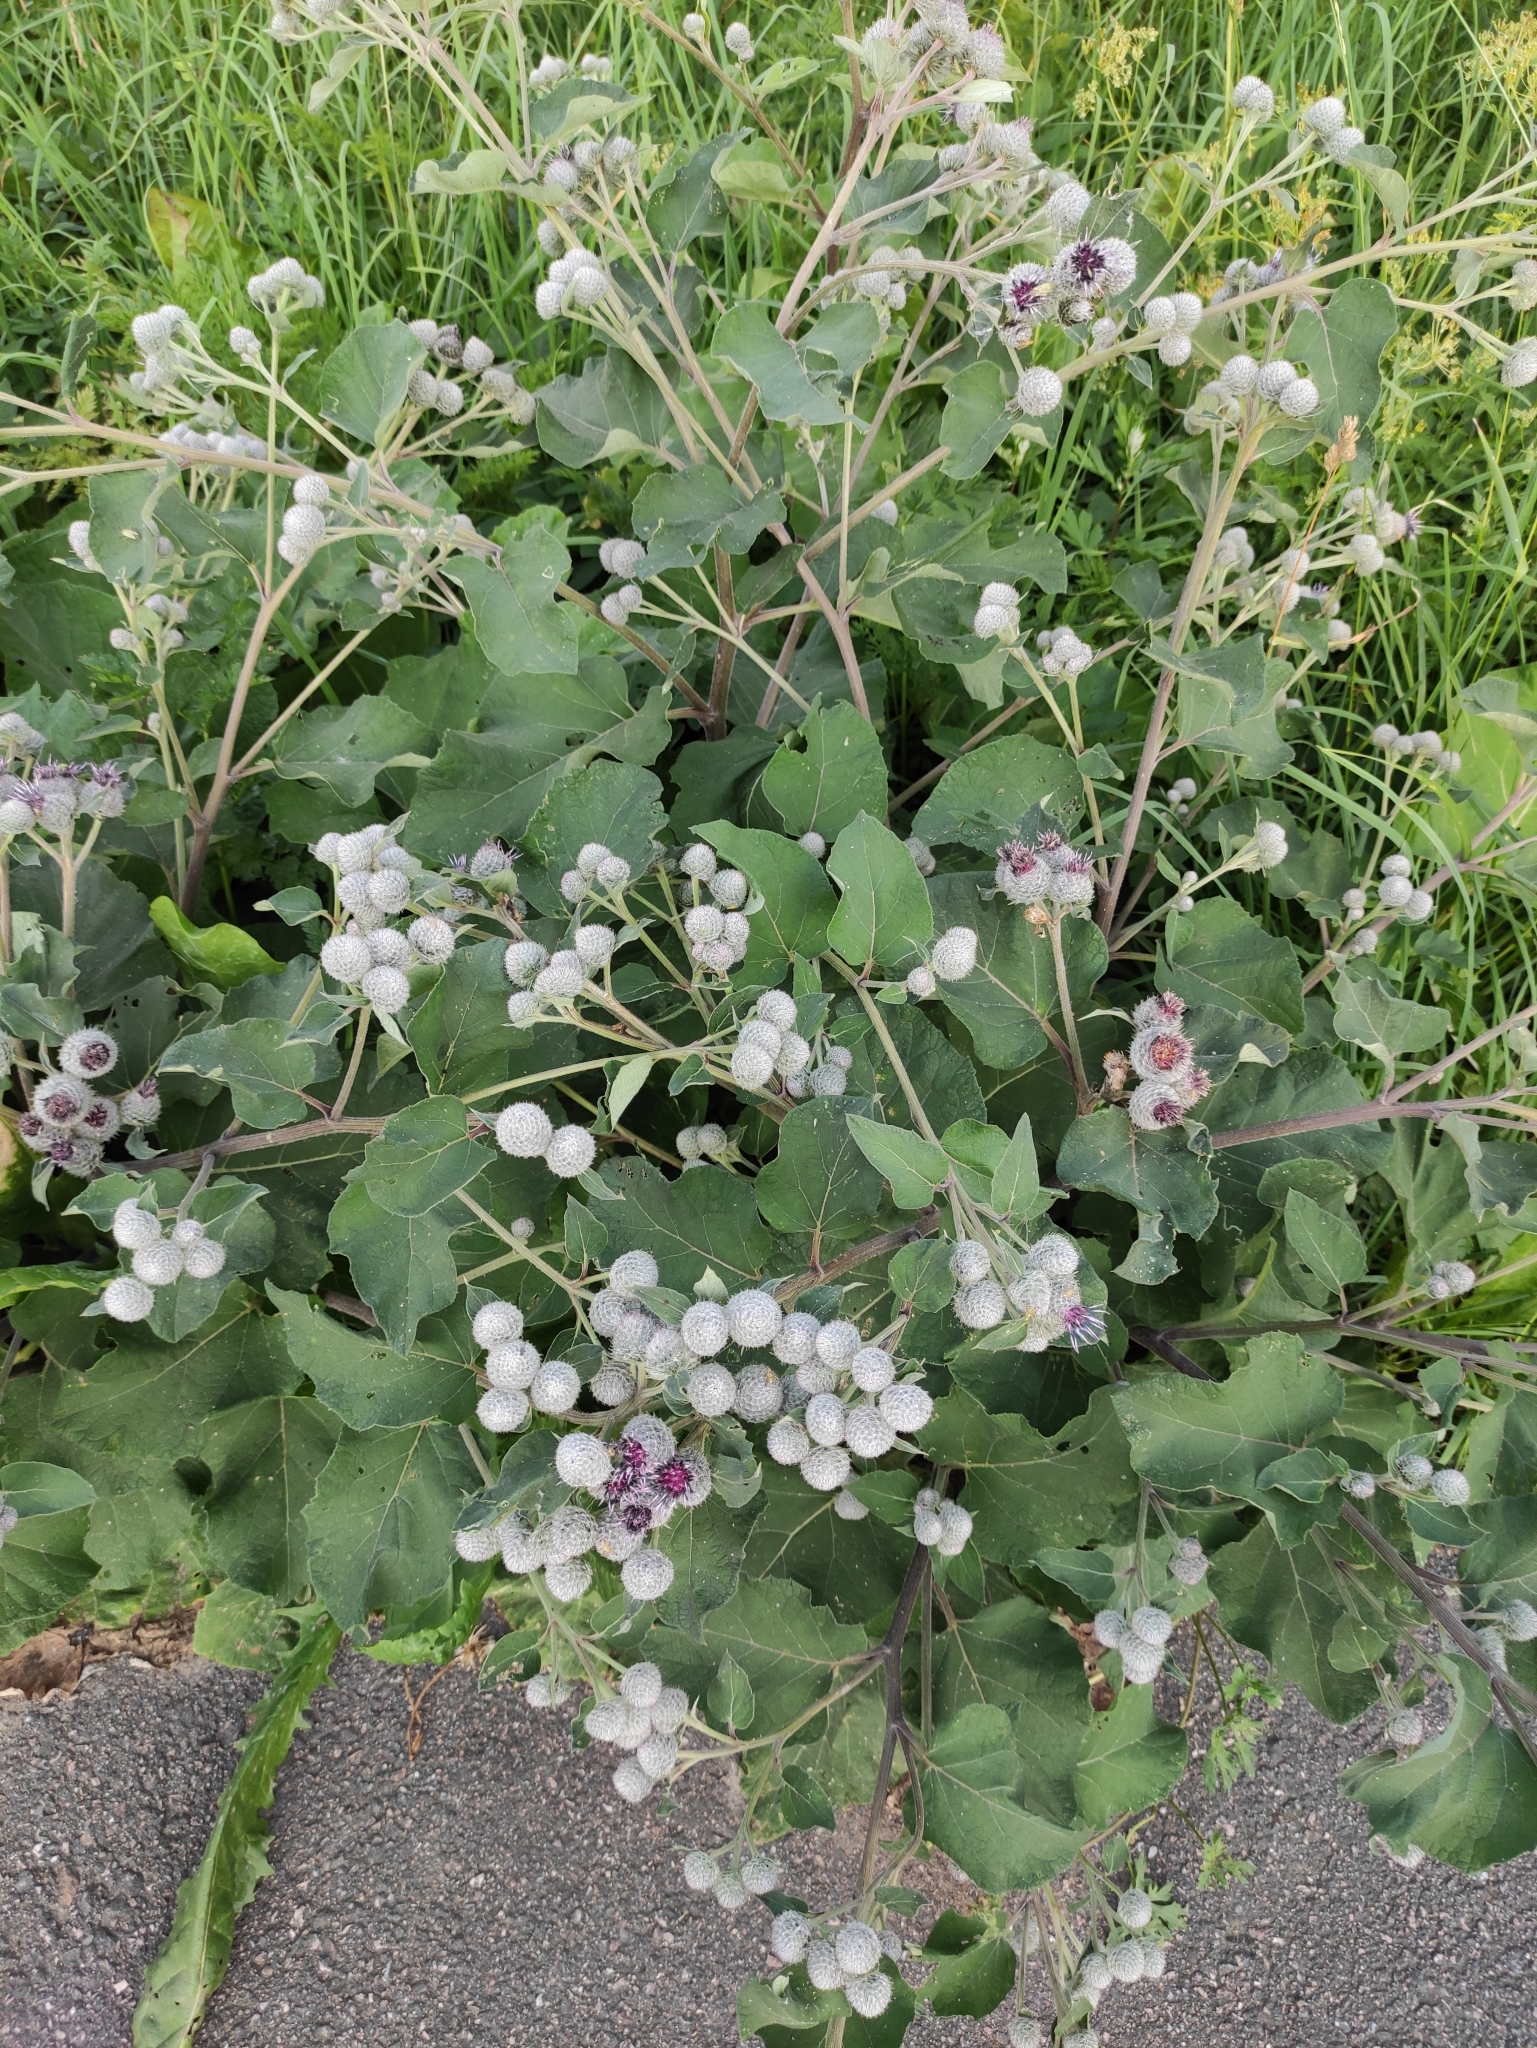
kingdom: Plantae
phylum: Tracheophyta
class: Magnoliopsida
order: Asterales
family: Asteraceae
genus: Arctium
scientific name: Arctium tomentosum
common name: Woolly burdock
